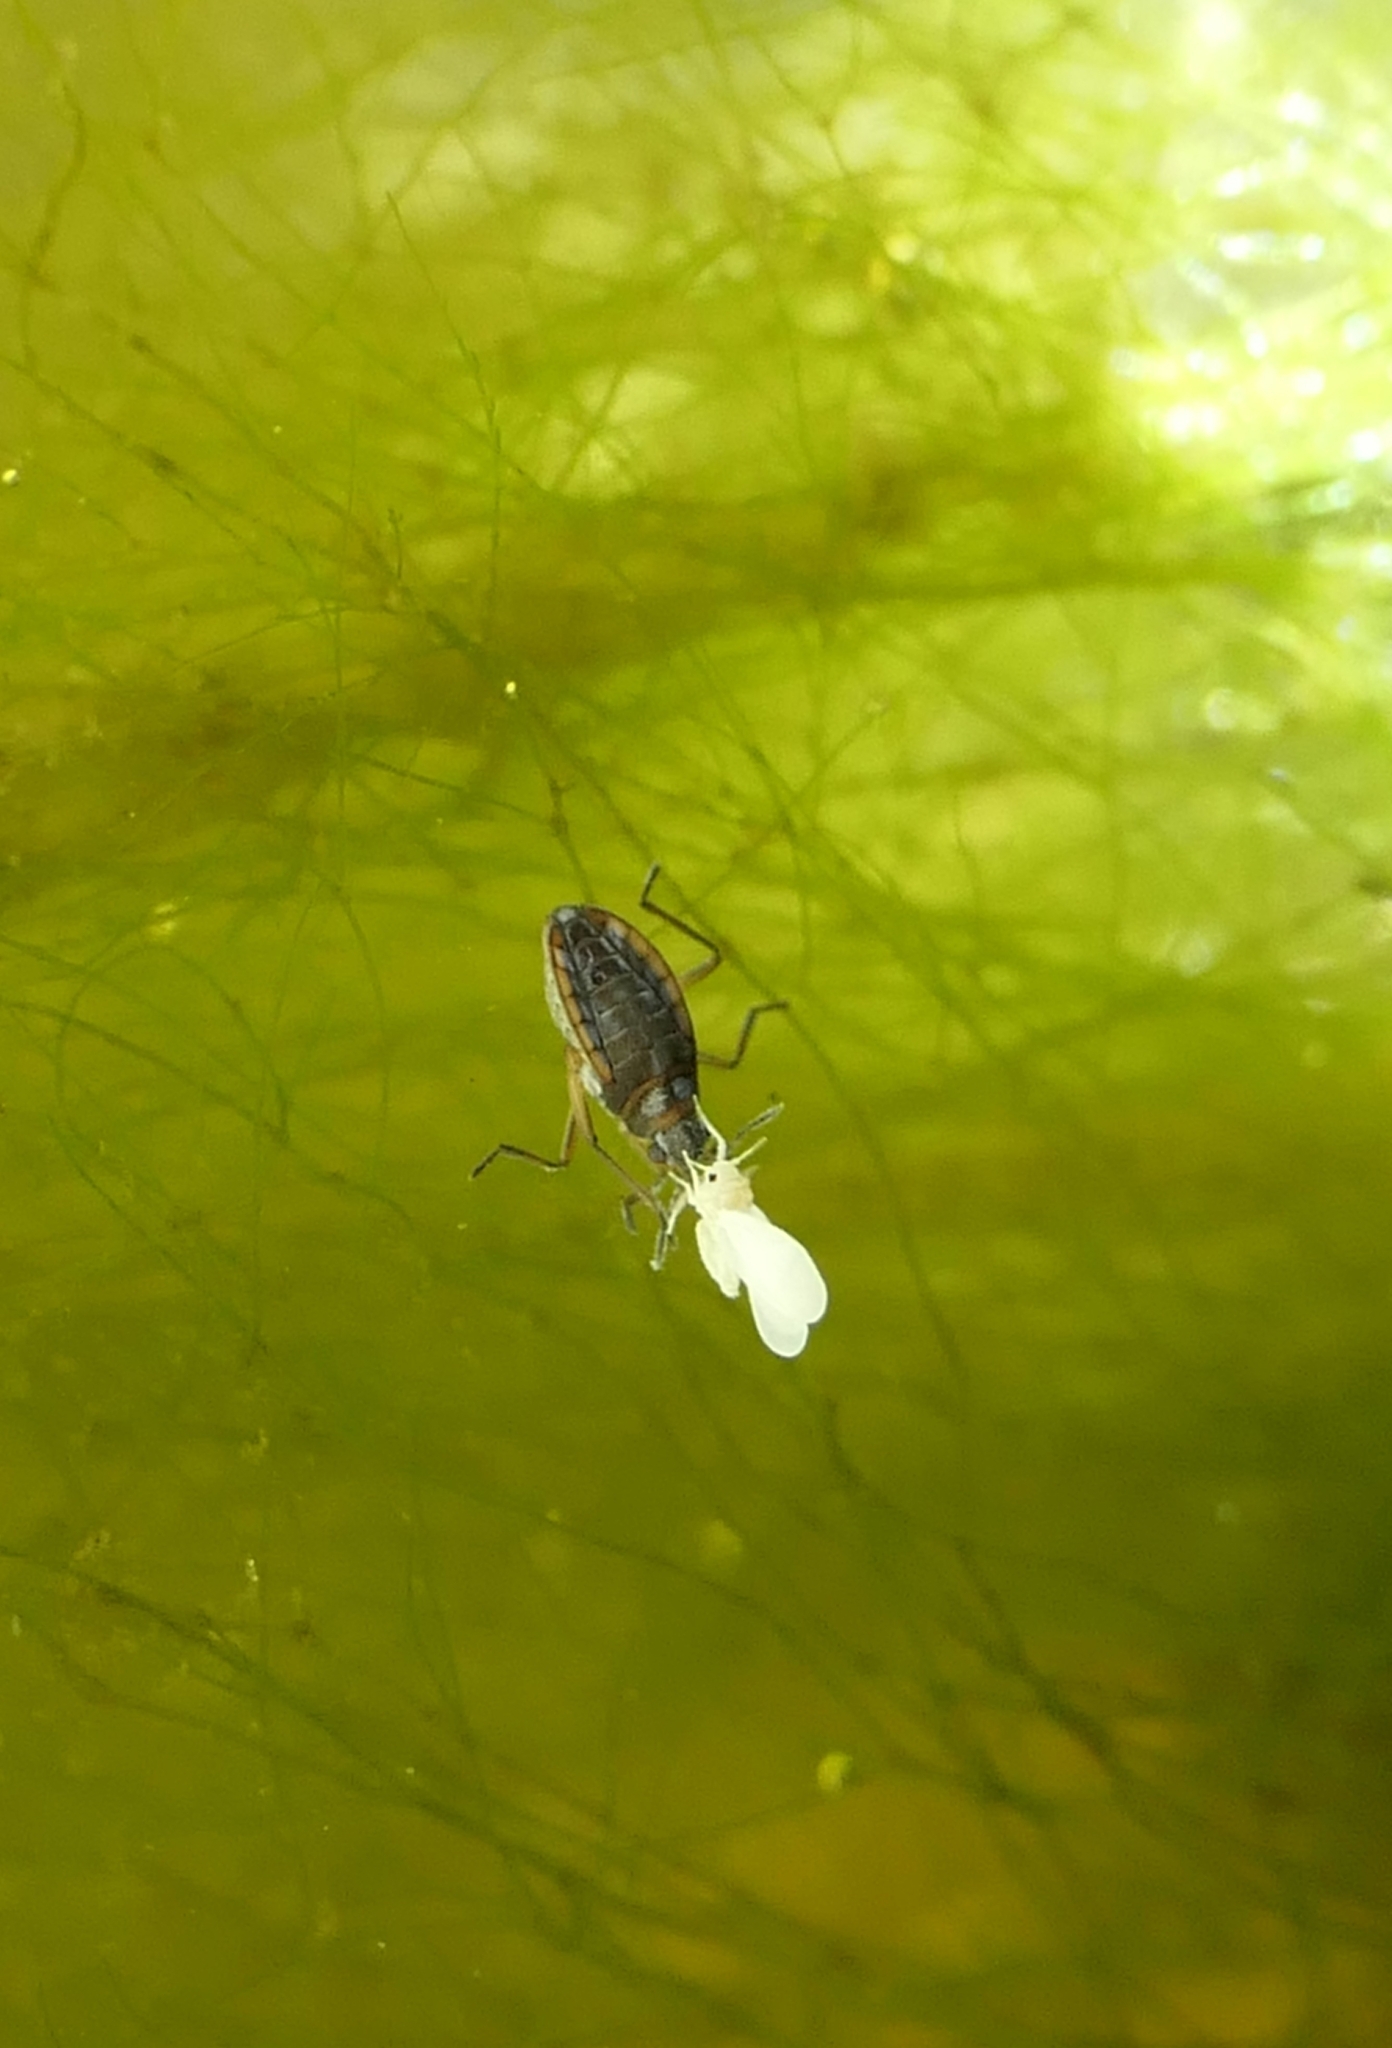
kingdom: Animalia
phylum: Arthropoda
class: Insecta
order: Hemiptera
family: Veliidae
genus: Microvelia
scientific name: Microvelia macgregori
